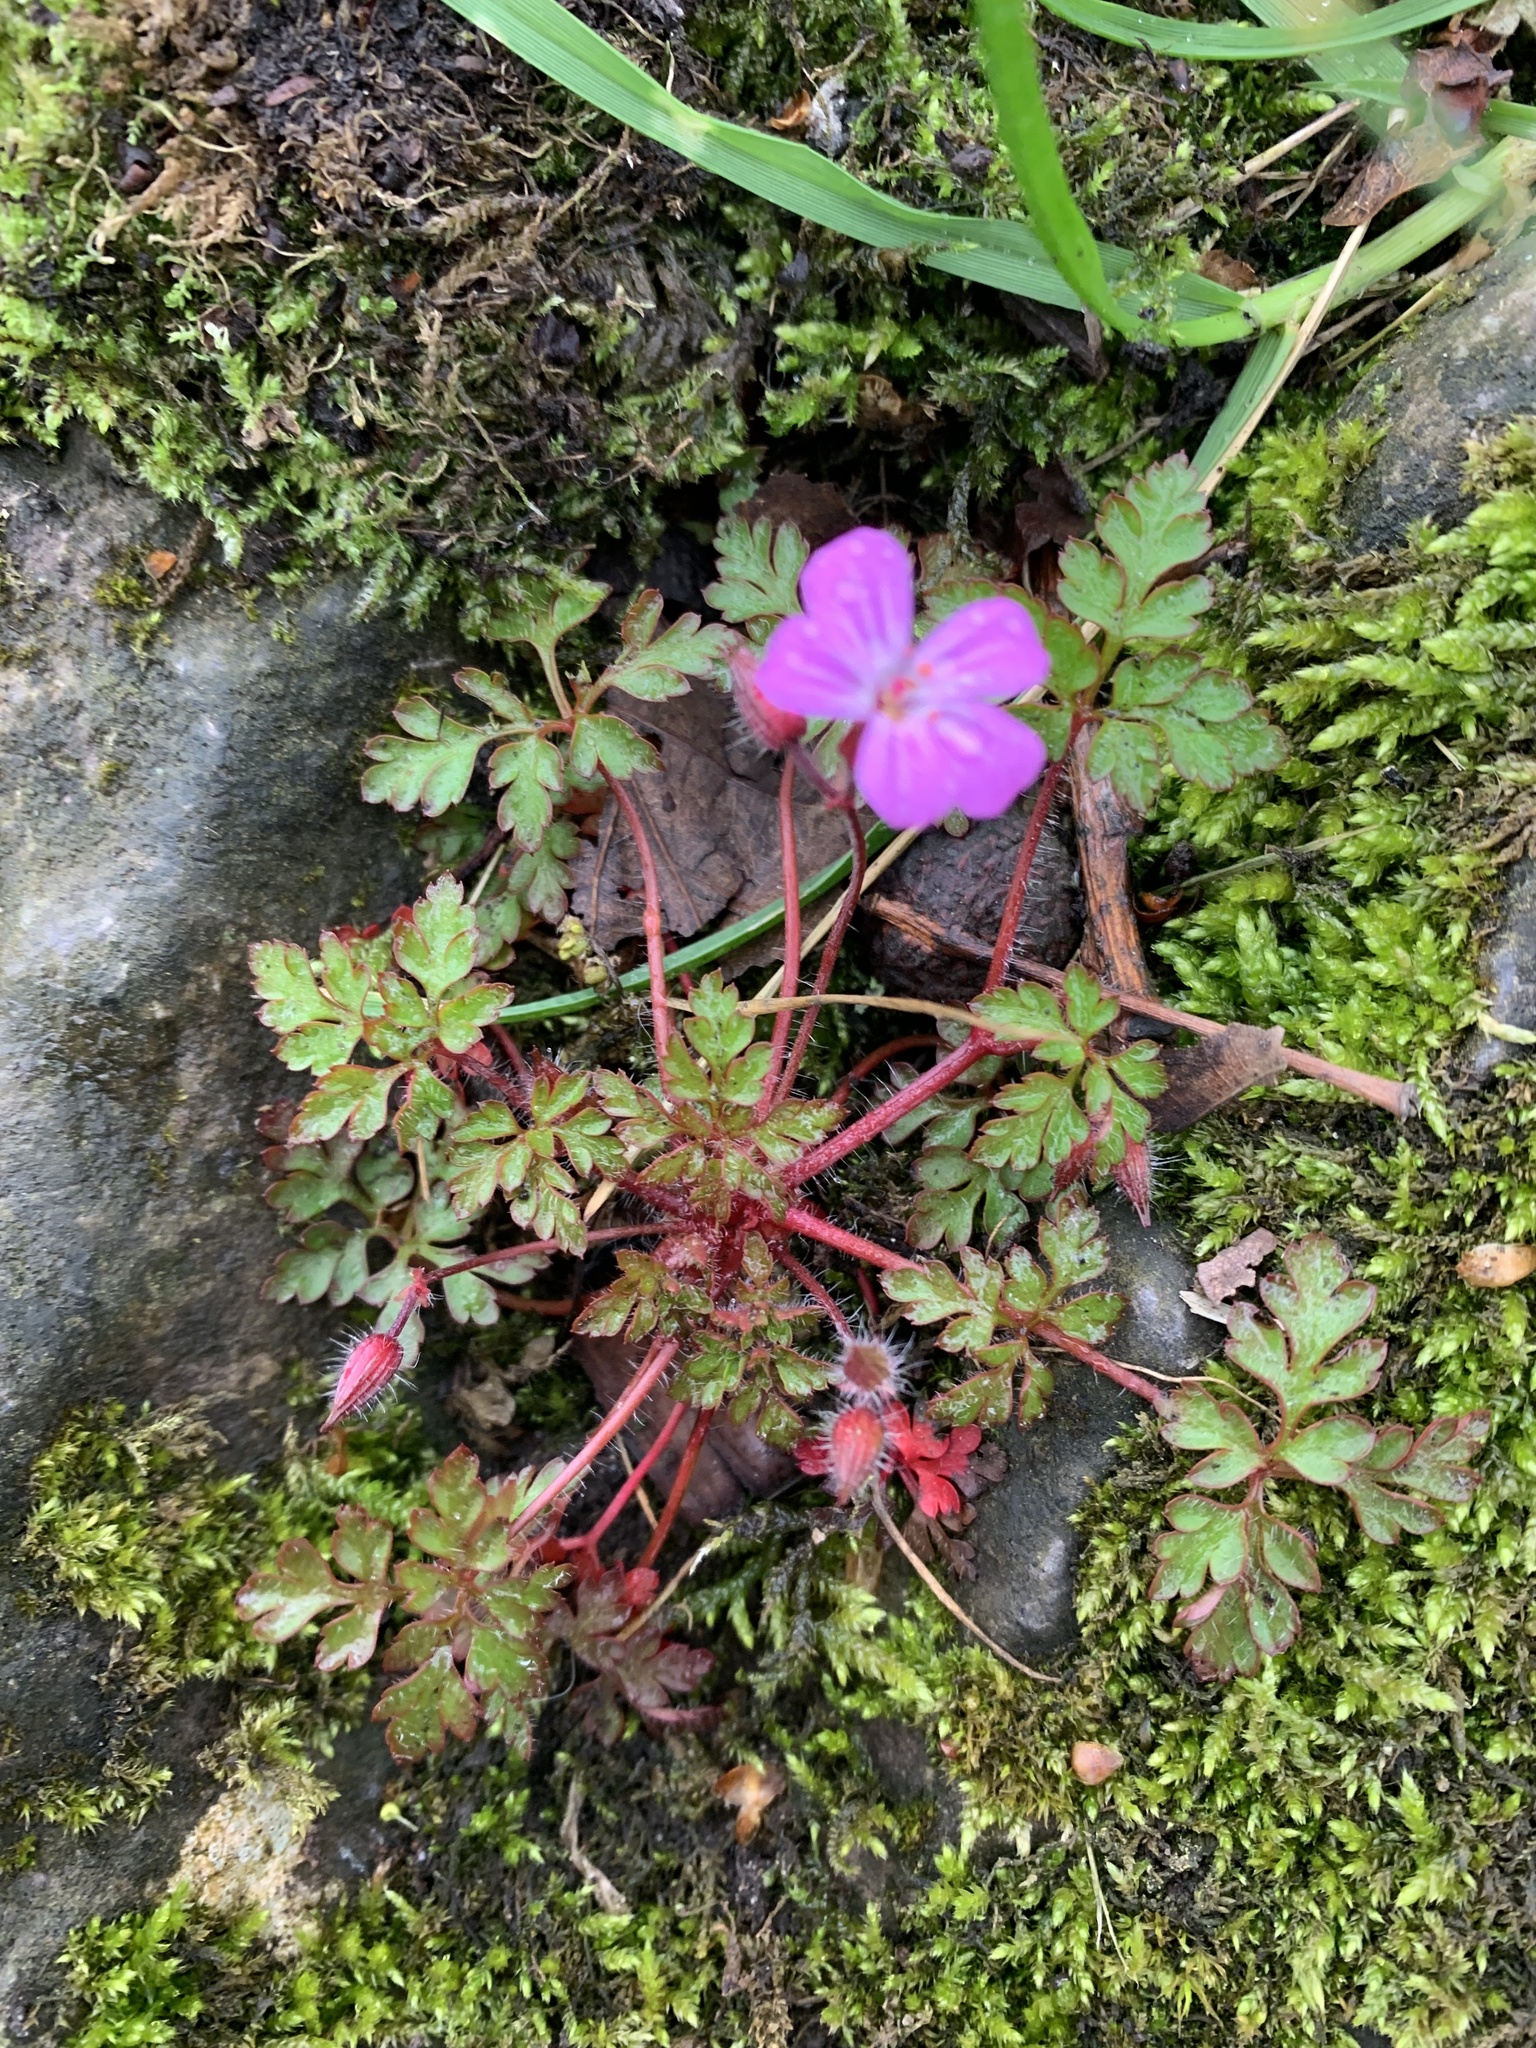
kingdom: Plantae
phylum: Tracheophyta
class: Magnoliopsida
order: Geraniales
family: Geraniaceae
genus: Geranium
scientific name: Geranium robertianum
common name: Herb-robert
